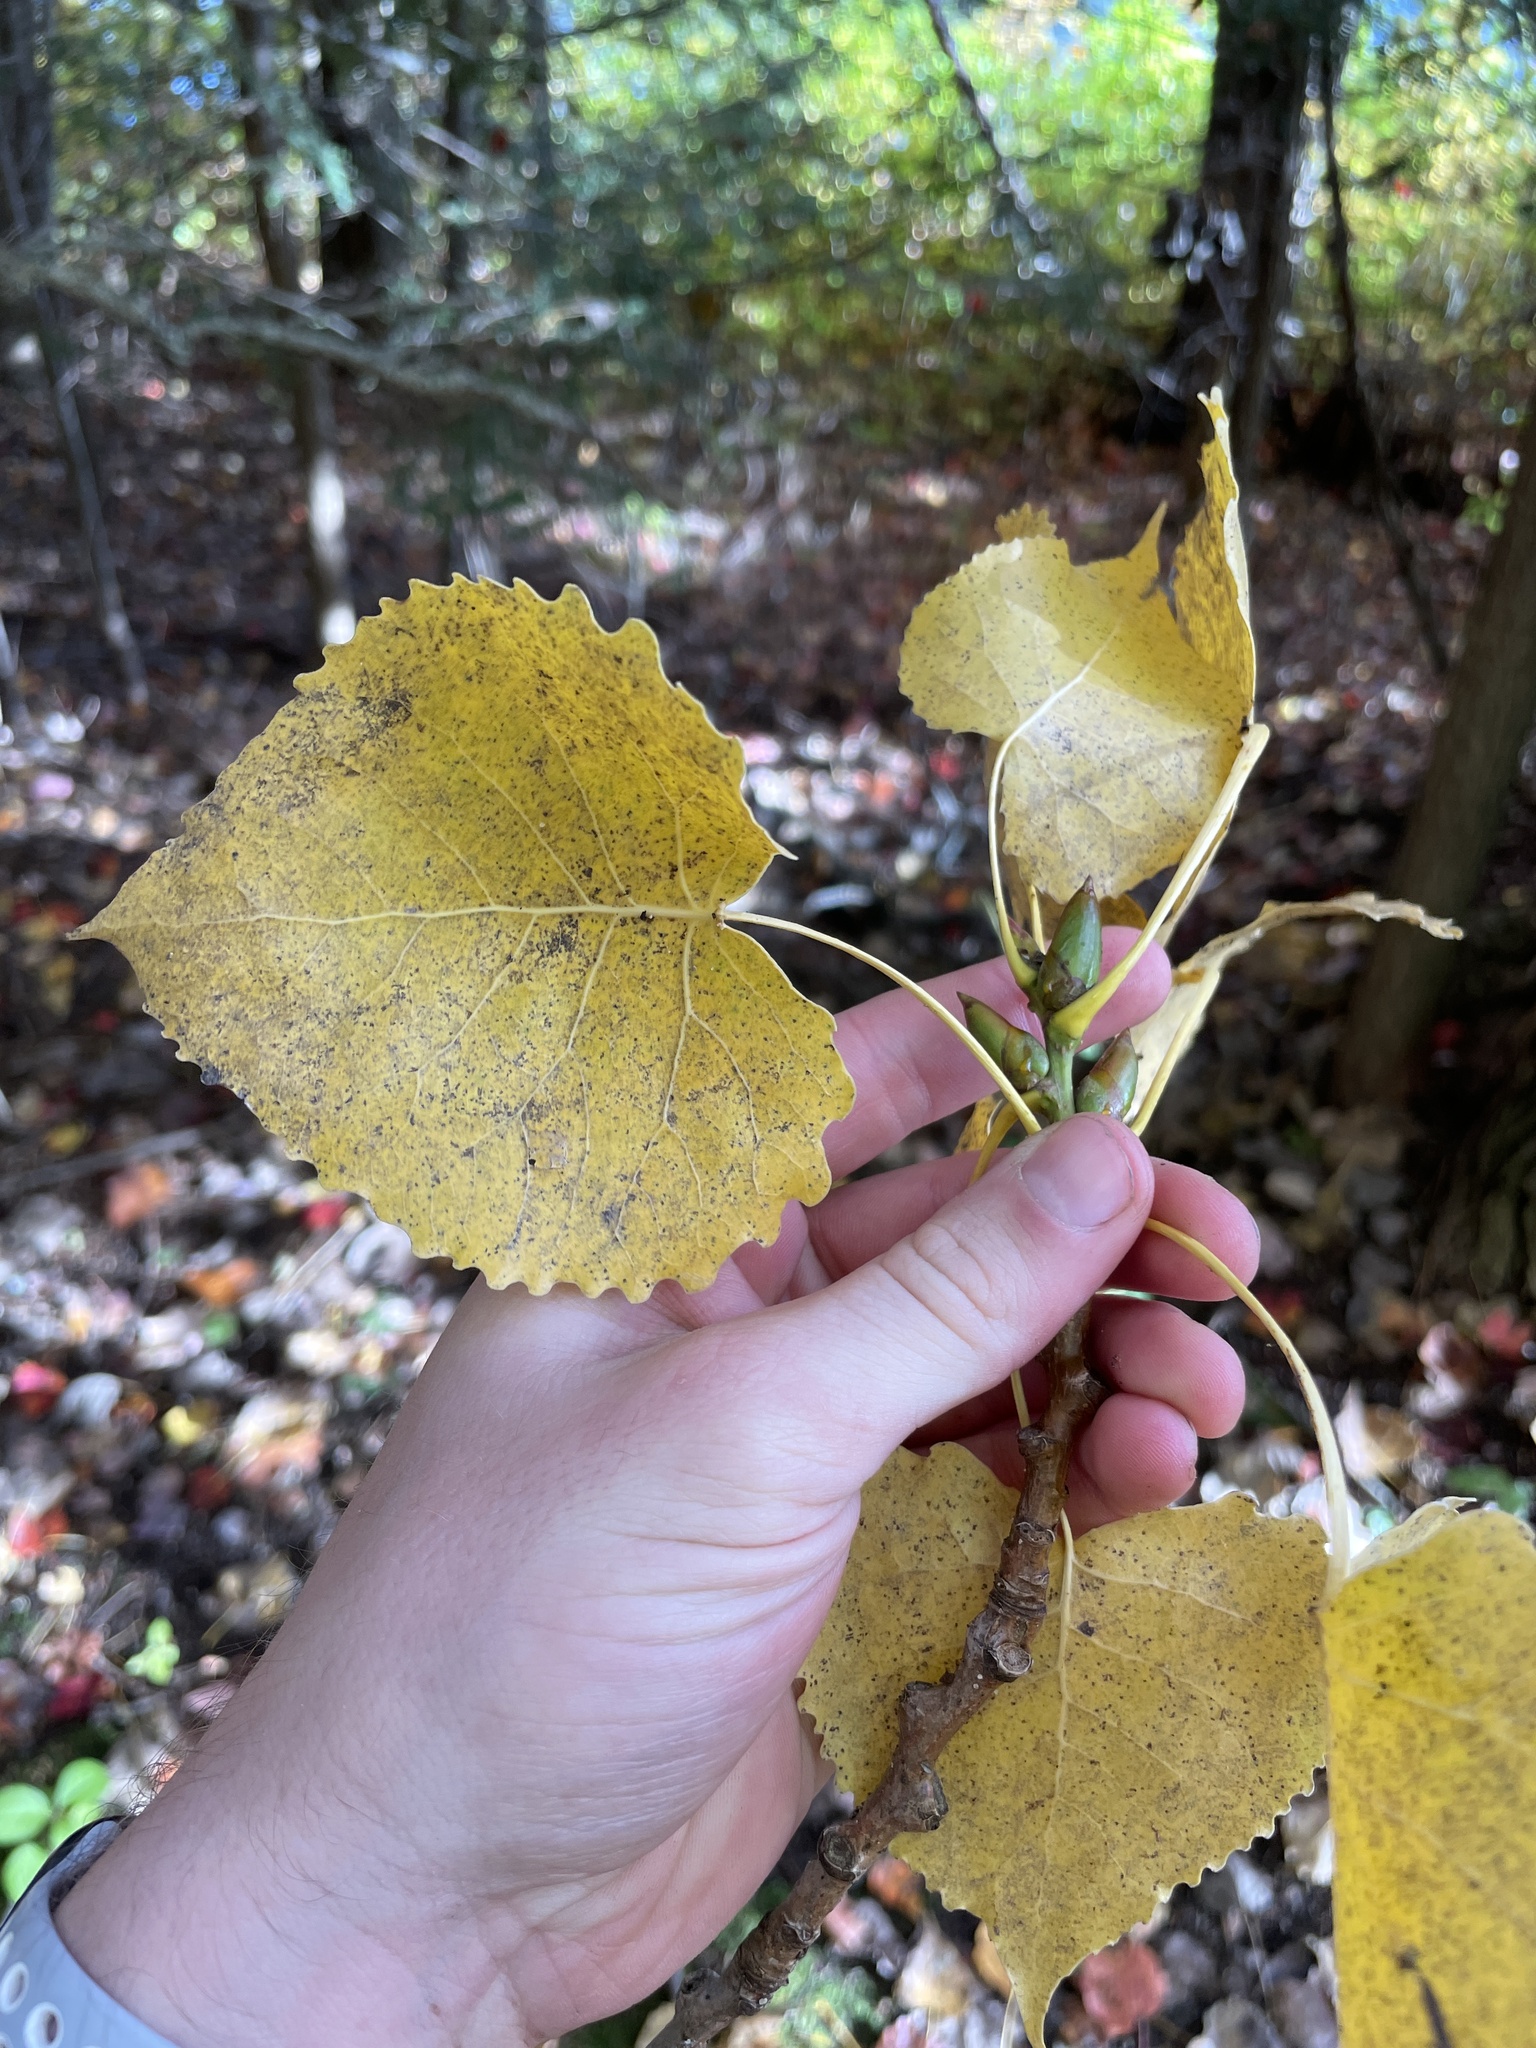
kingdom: Plantae
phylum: Tracheophyta
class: Magnoliopsida
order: Malpighiales
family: Salicaceae
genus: Populus
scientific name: Populus deltoides
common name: Eastern cottonwood
